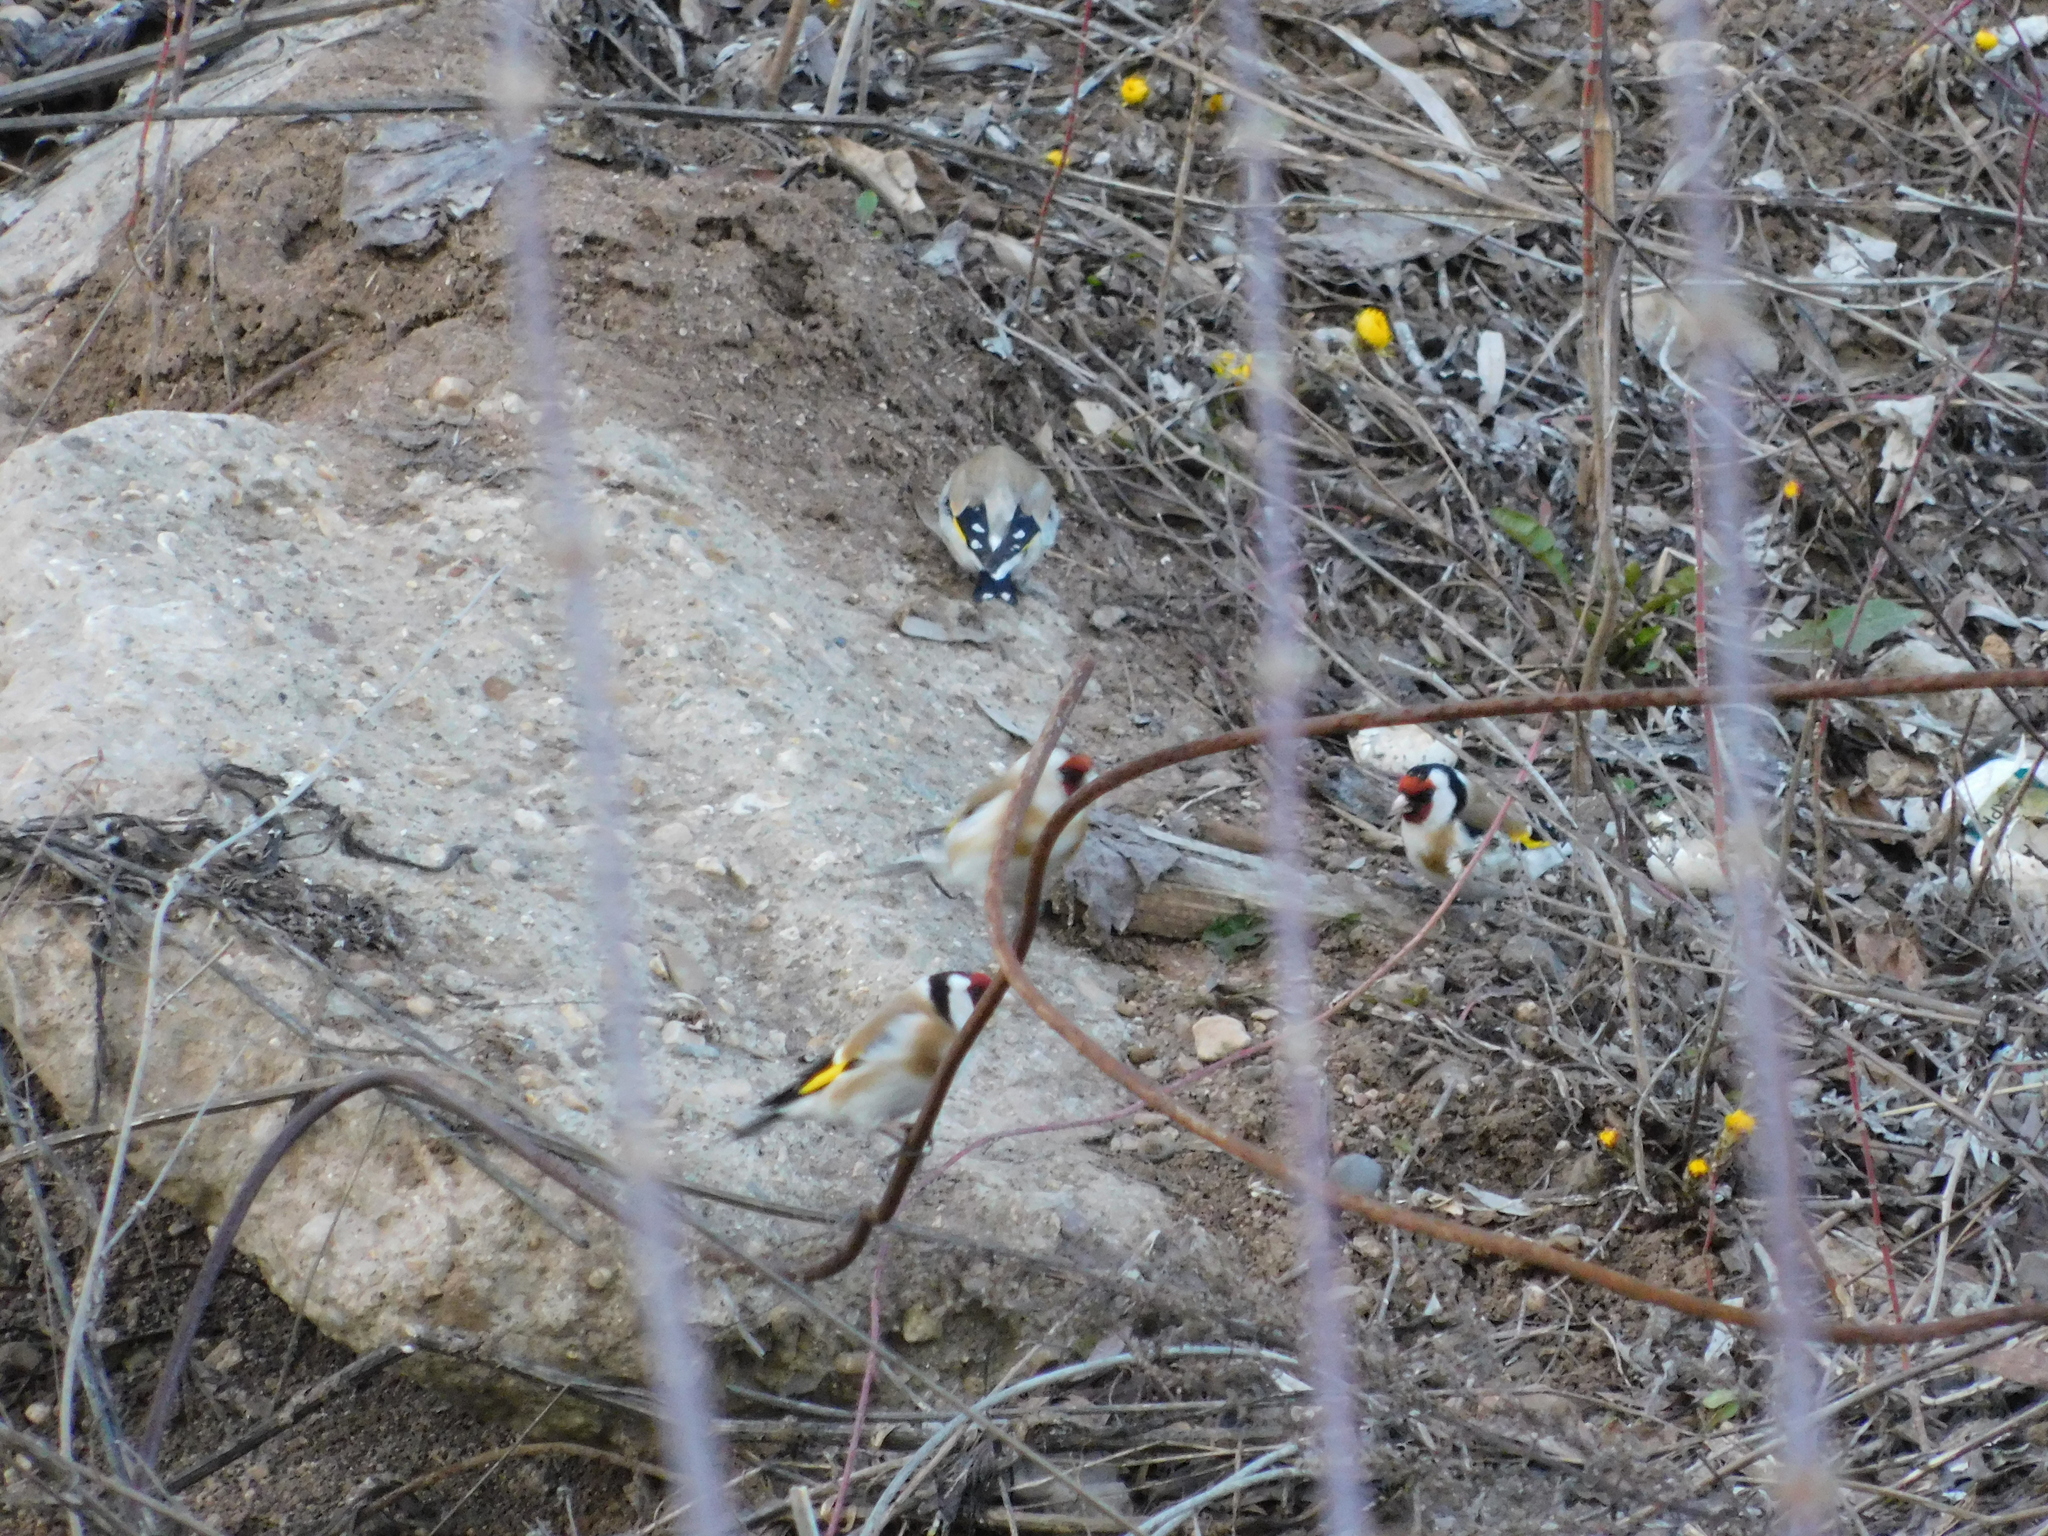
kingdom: Animalia
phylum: Chordata
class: Aves
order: Passeriformes
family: Fringillidae
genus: Carduelis
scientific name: Carduelis carduelis
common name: European goldfinch
